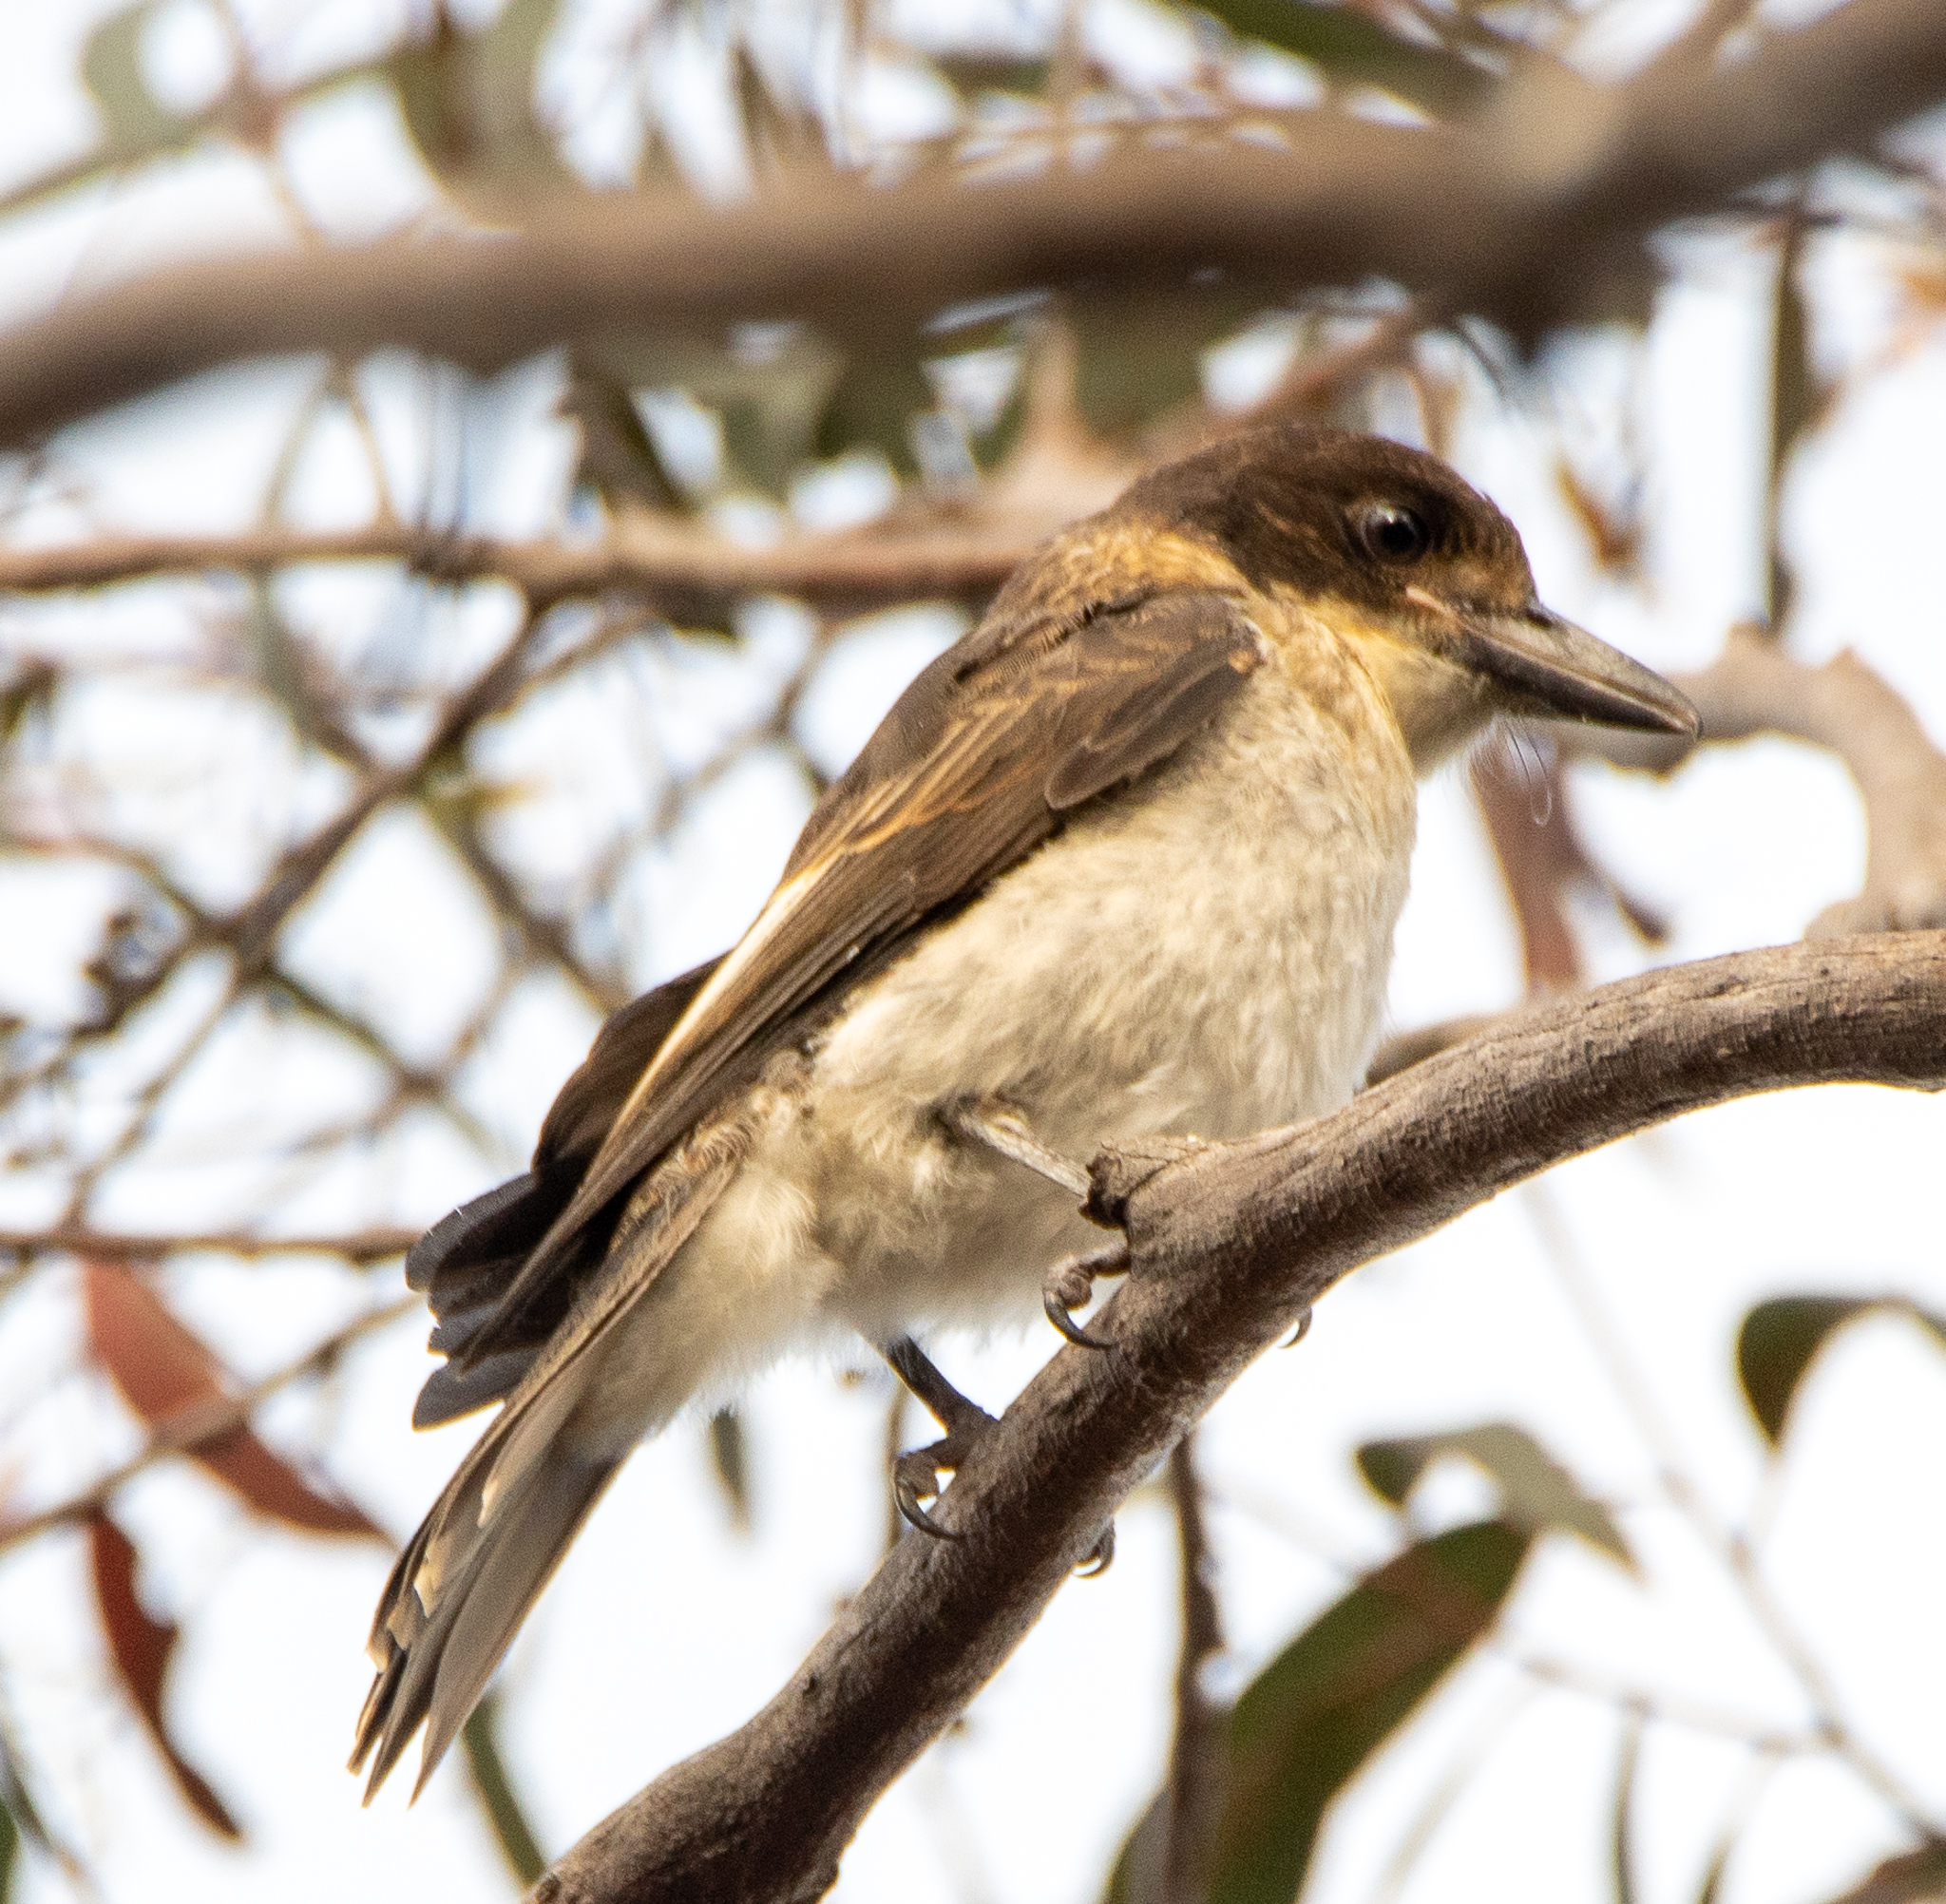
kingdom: Animalia
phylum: Chordata
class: Aves
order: Passeriformes
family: Cracticidae
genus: Cracticus
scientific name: Cracticus torquatus
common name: Grey butcherbird
